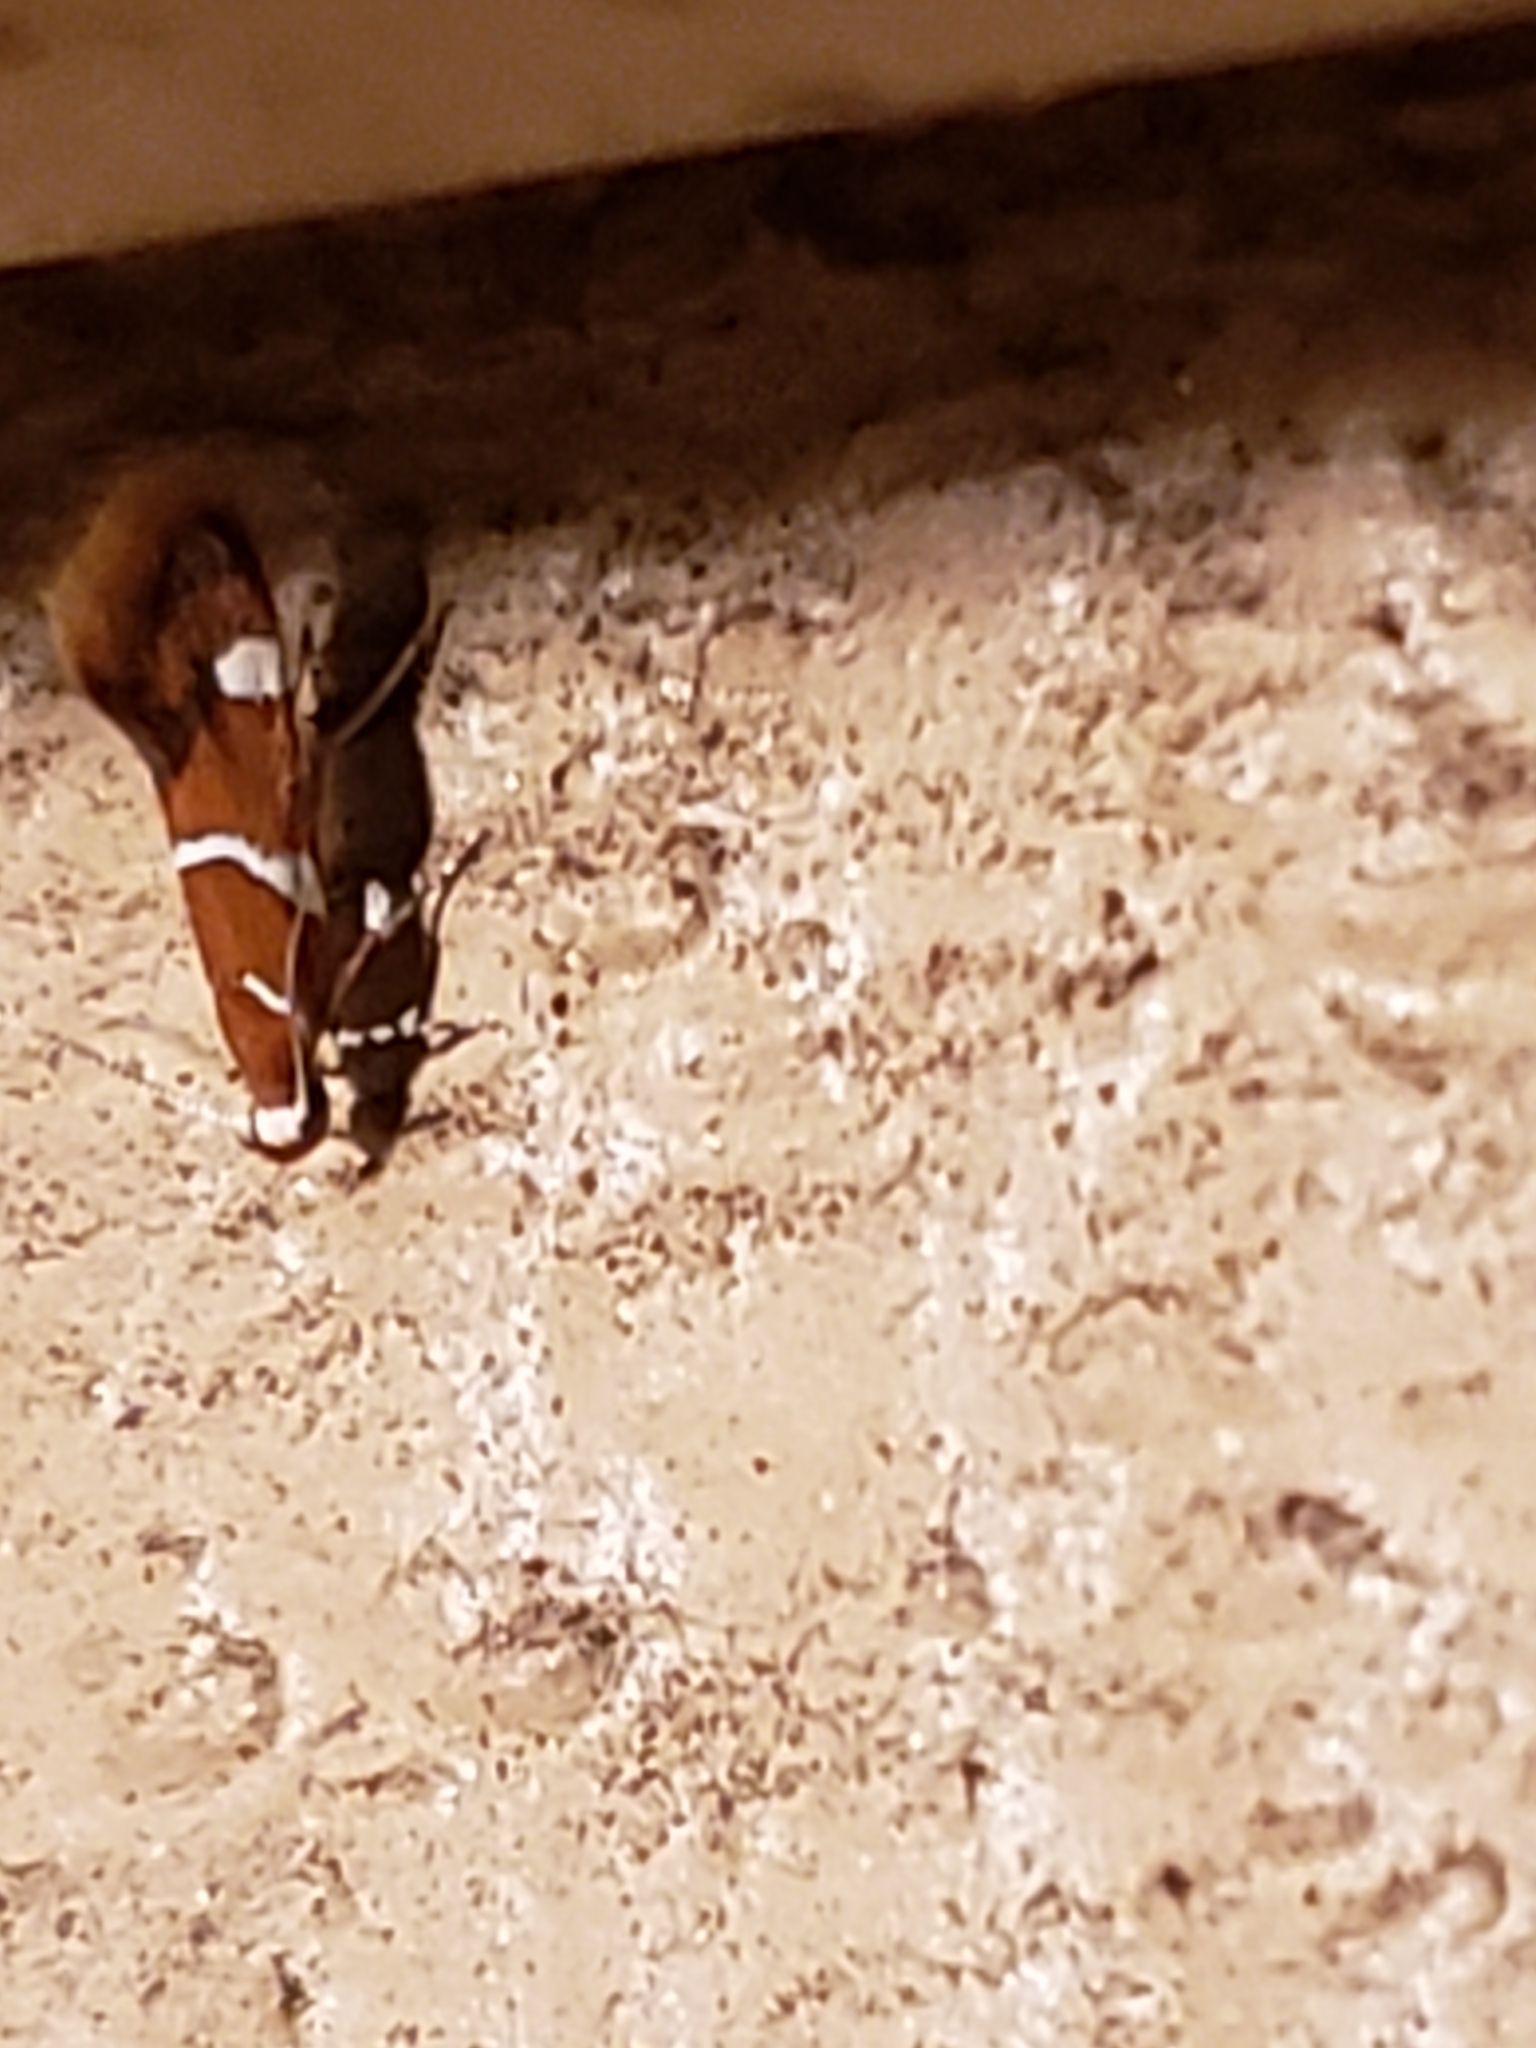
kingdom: Animalia
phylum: Arthropoda
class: Insecta
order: Lepidoptera
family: Oecophoridae
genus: Promalactis
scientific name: Promalactis suzukiella
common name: Moth
